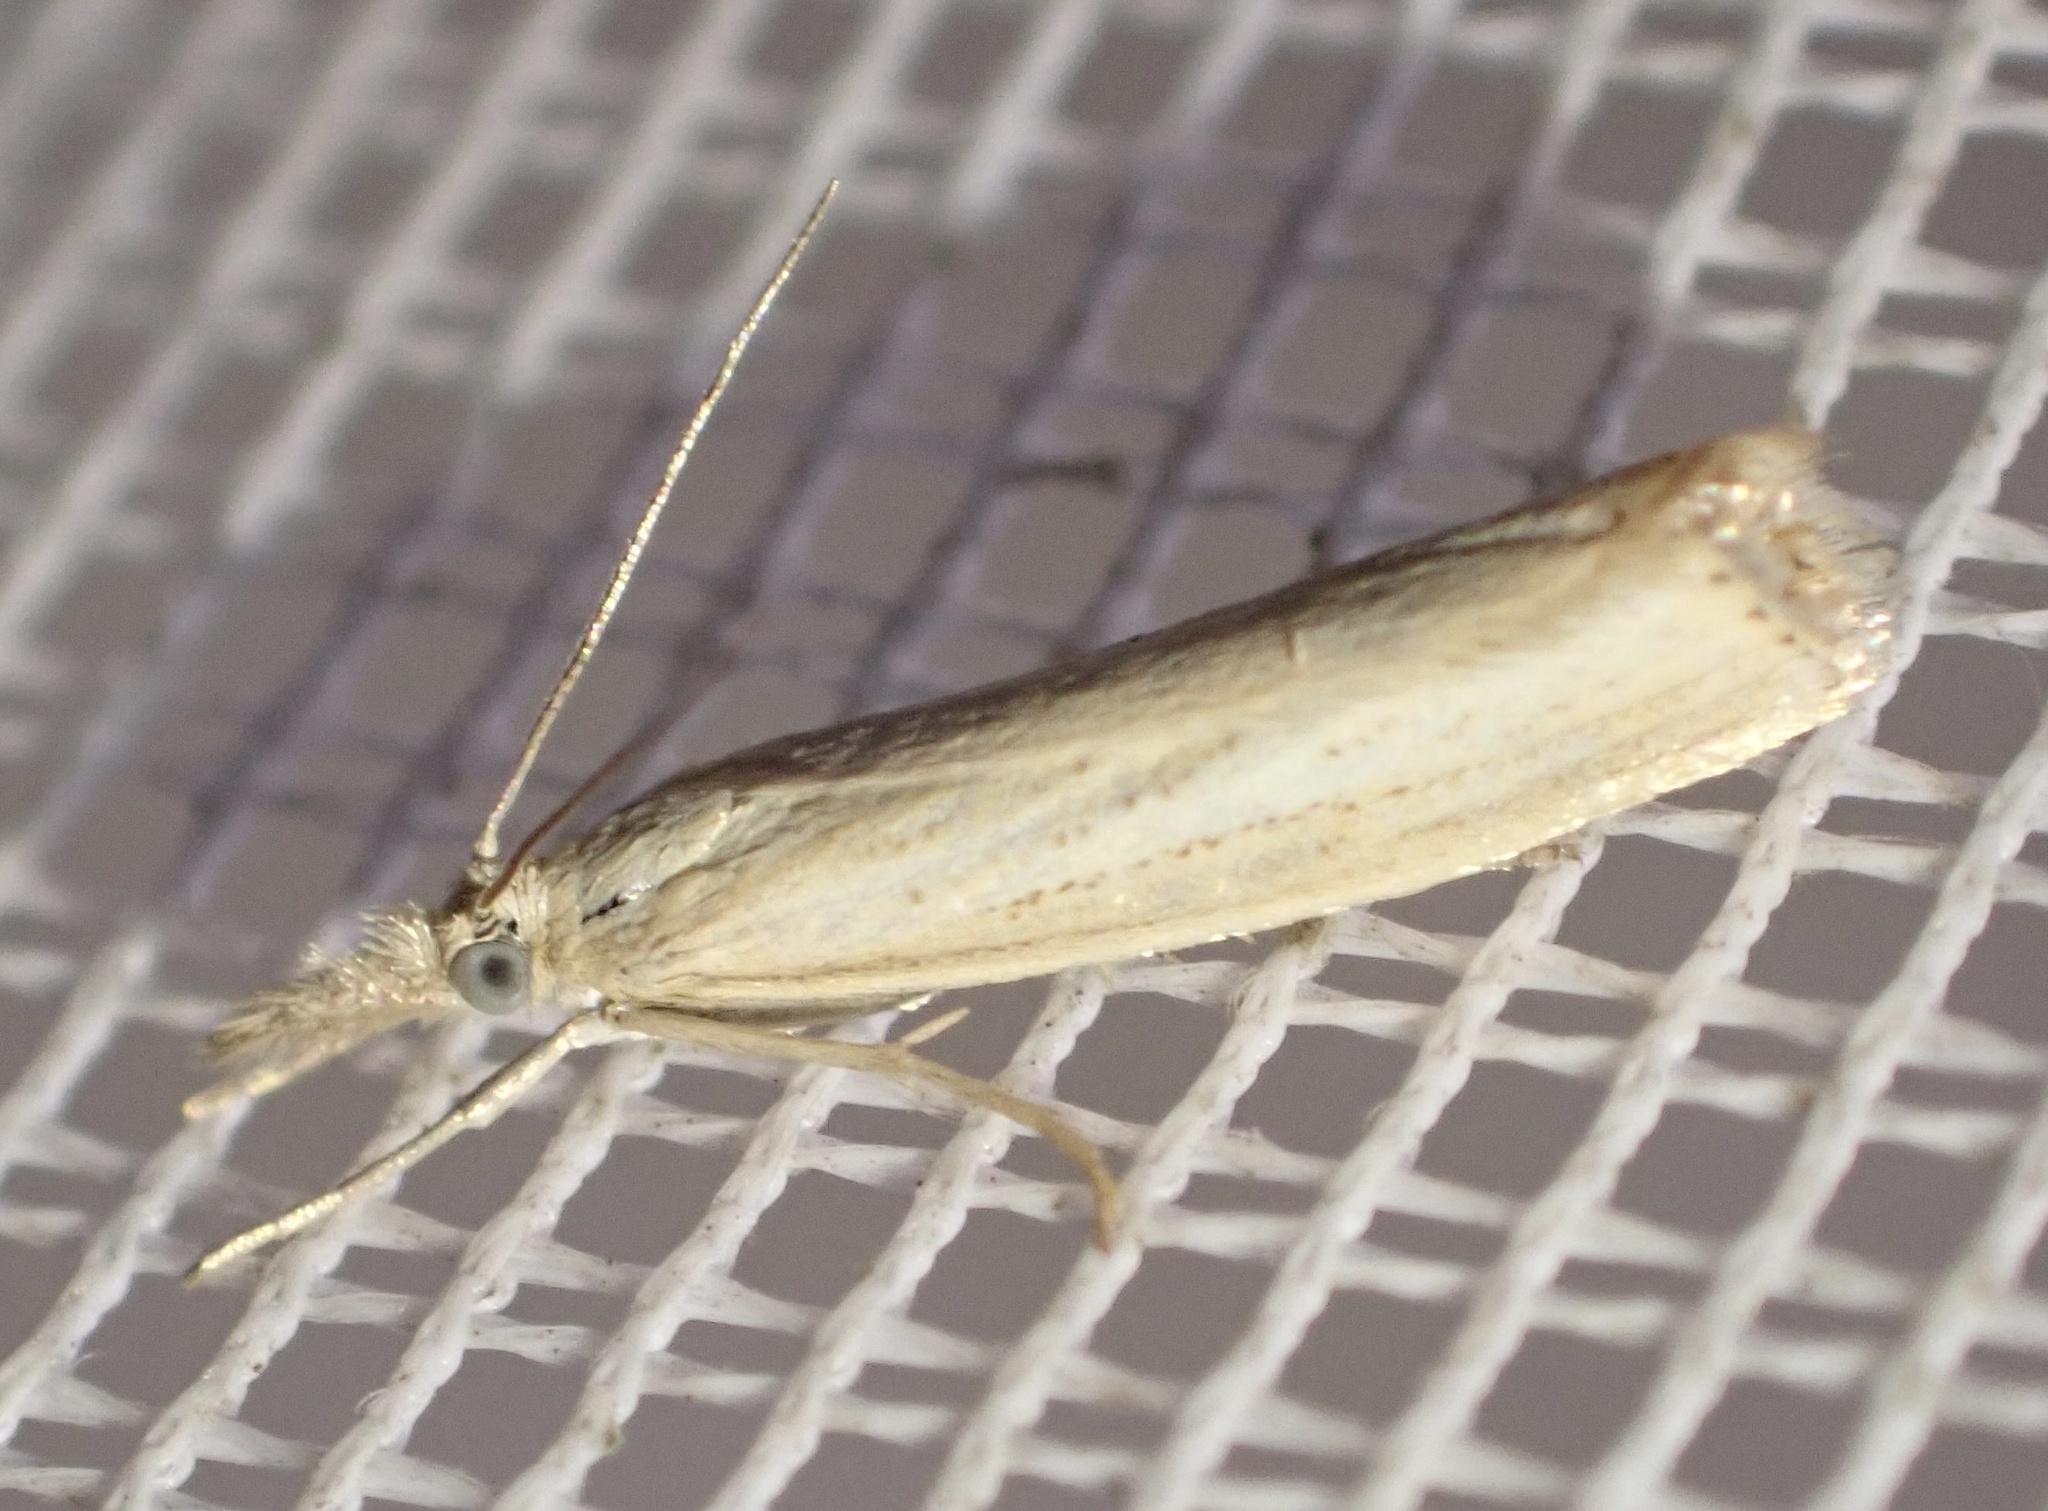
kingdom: Animalia
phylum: Arthropoda
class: Insecta
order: Lepidoptera
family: Crambidae
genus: Agriphila
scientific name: Agriphila straminella
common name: Straw grass-veneer
